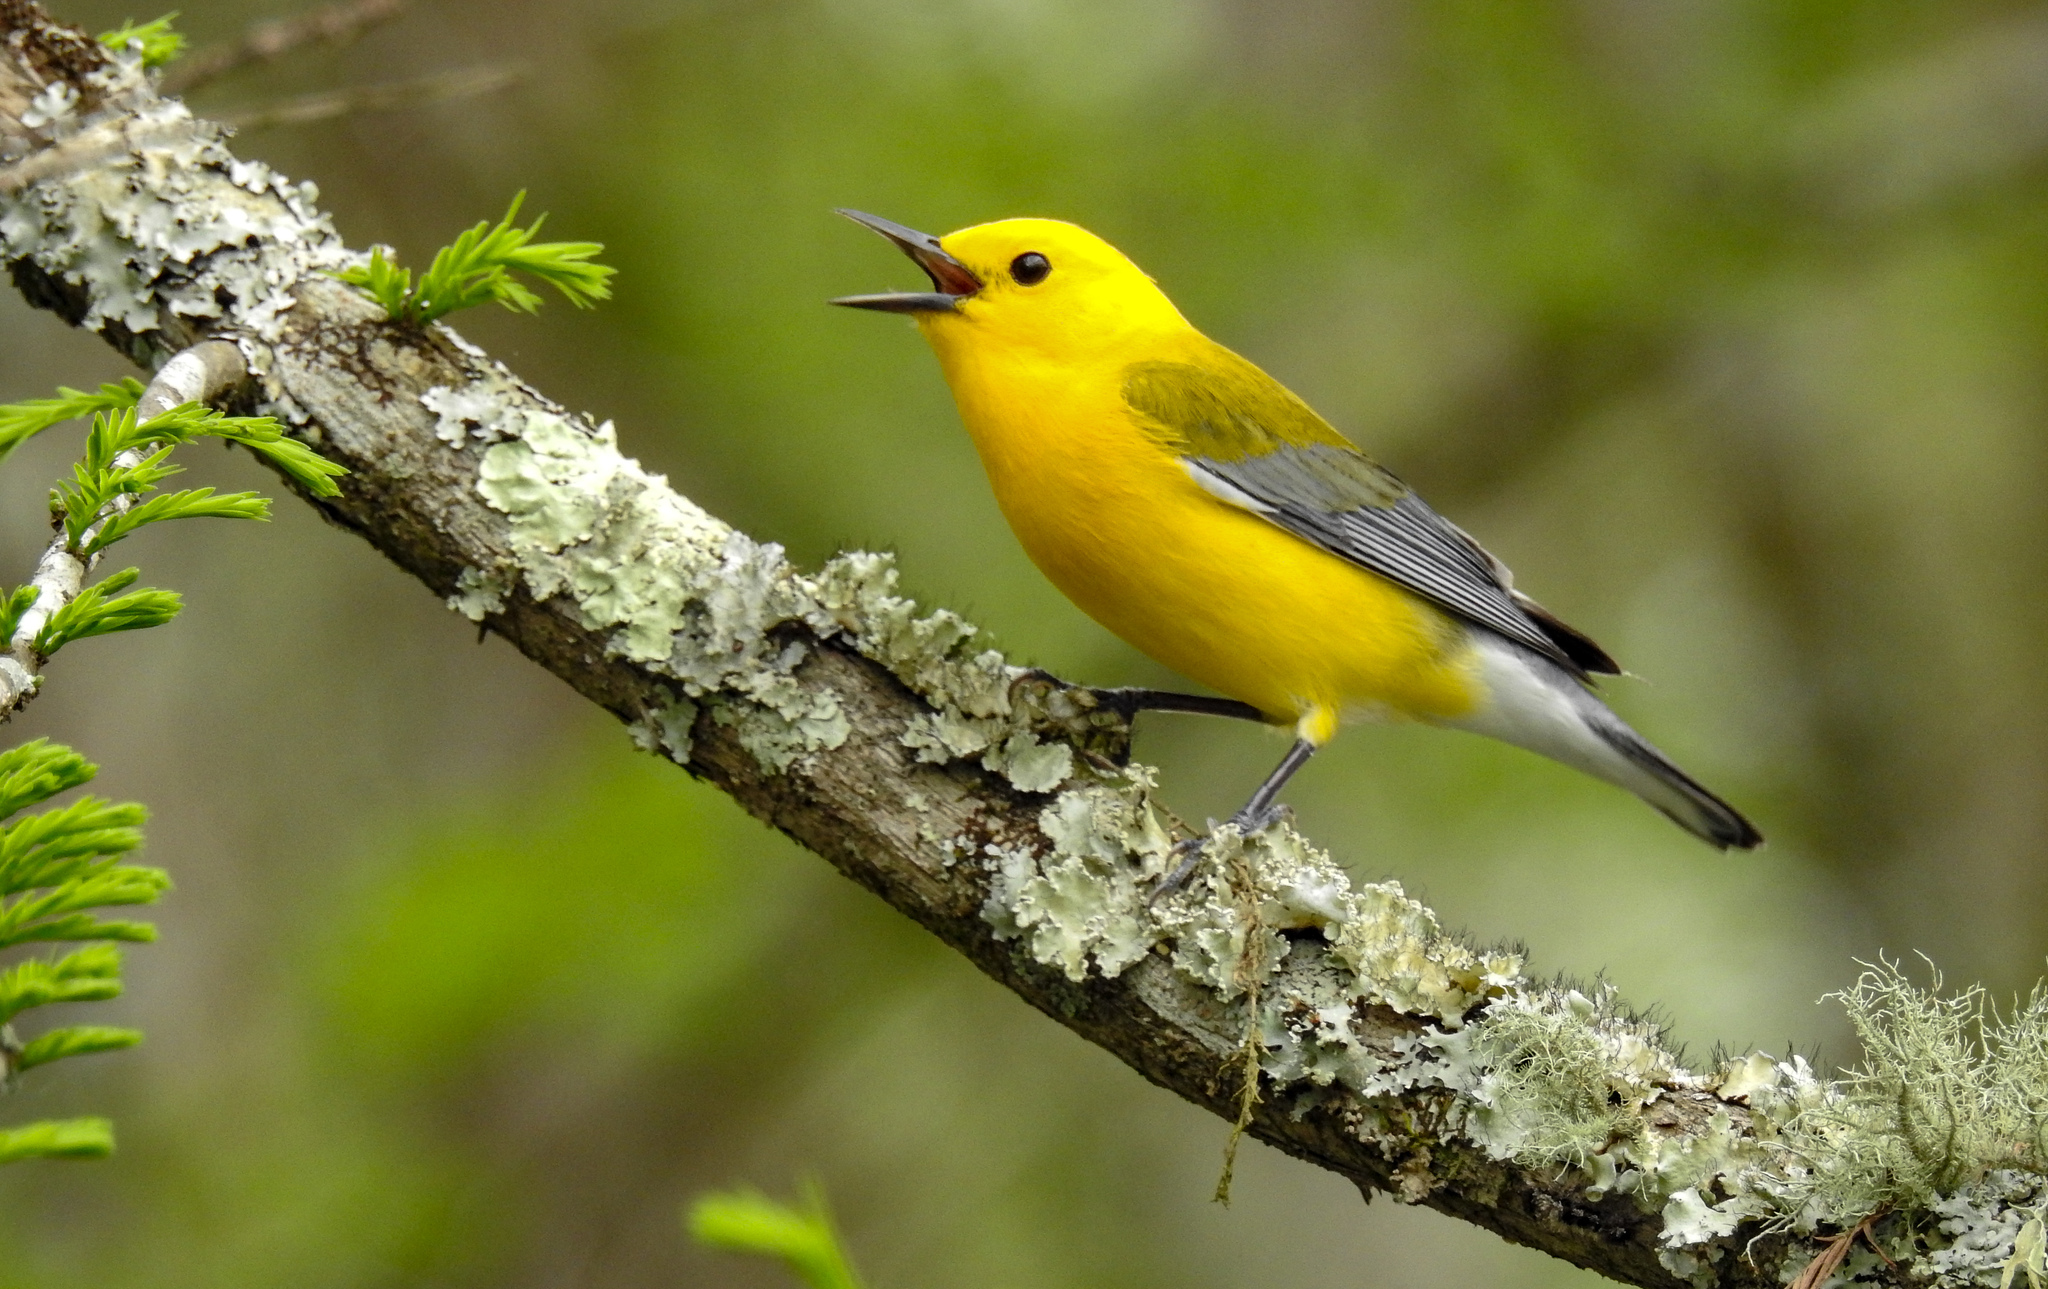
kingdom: Animalia
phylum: Chordata
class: Aves
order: Passeriformes
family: Parulidae
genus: Protonotaria
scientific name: Protonotaria citrea
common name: Prothonotary warbler
